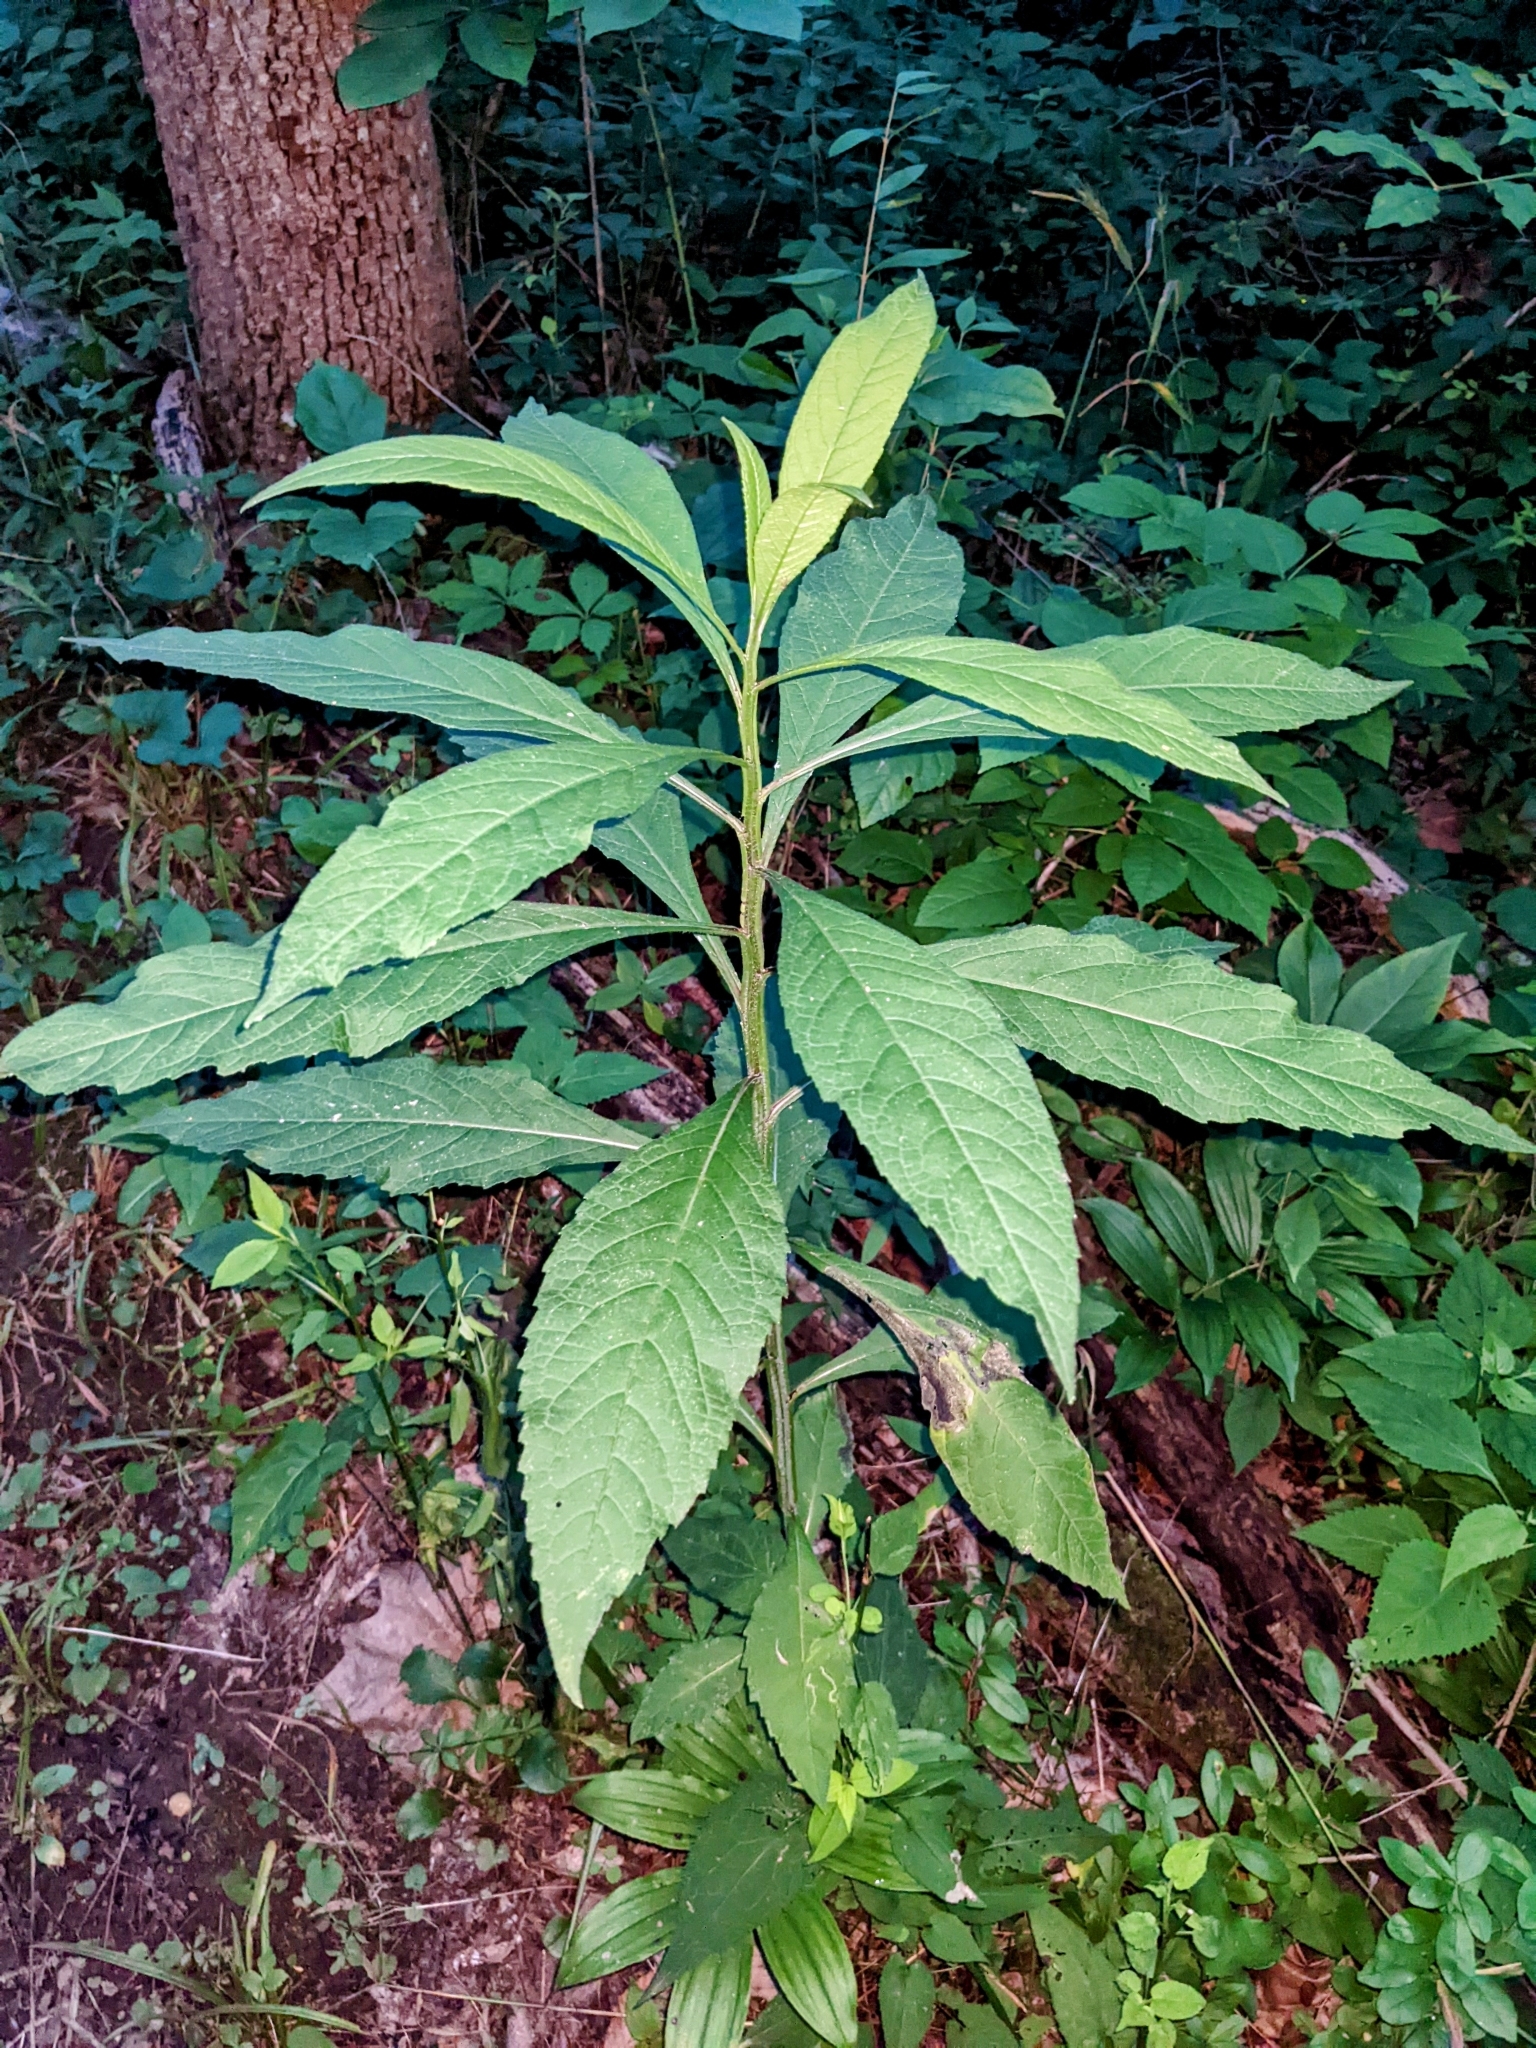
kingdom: Plantae
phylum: Tracheophyta
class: Magnoliopsida
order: Asterales
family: Asteraceae
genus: Verbesina
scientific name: Verbesina alternifolia
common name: Wingstem
